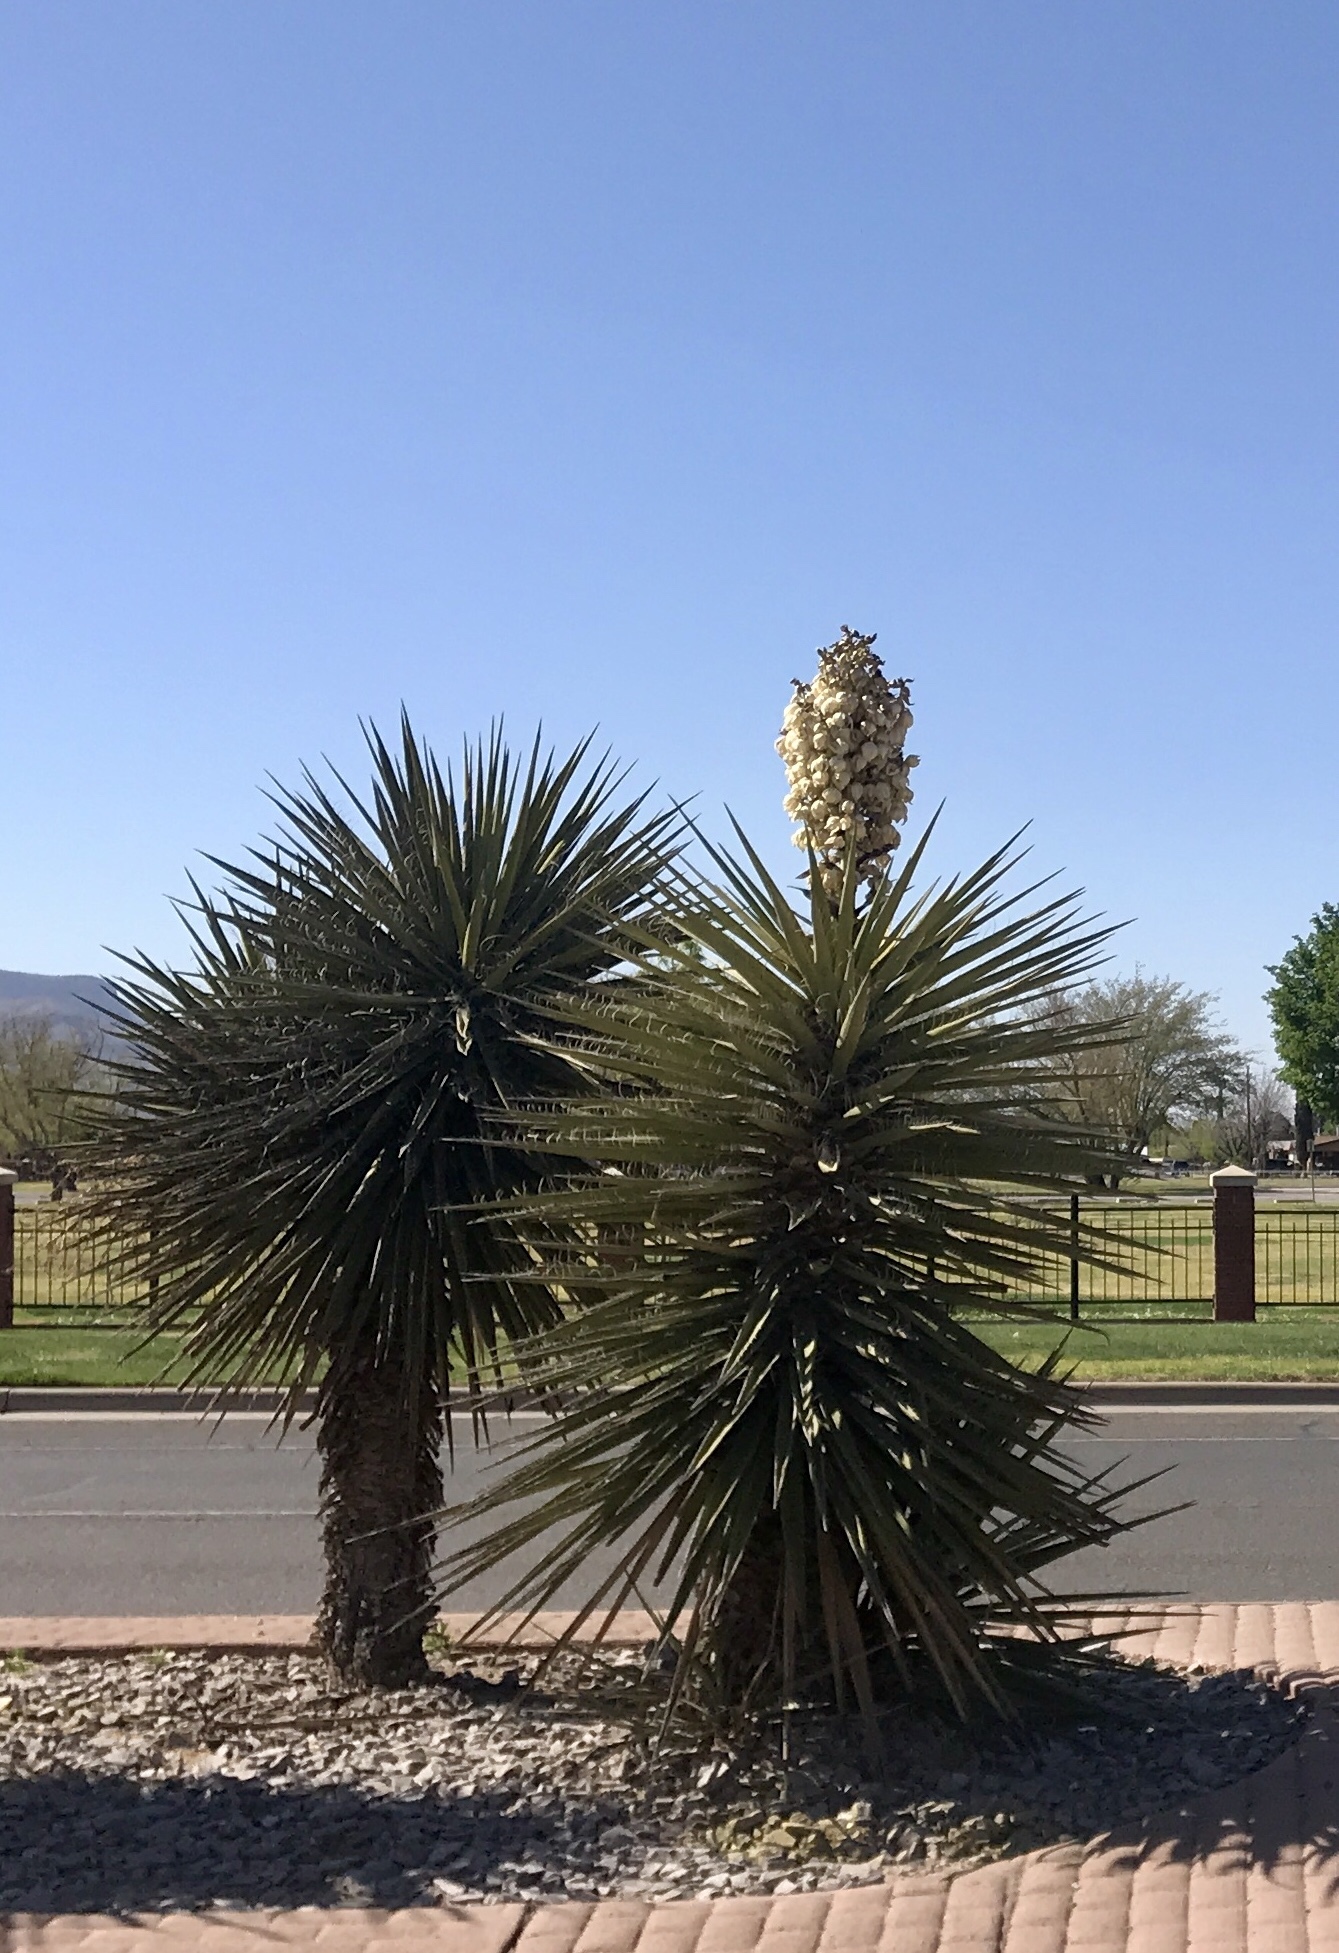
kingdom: Plantae
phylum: Tracheophyta
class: Liliopsida
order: Asparagales
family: Asparagaceae
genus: Yucca
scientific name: Yucca treculiana
